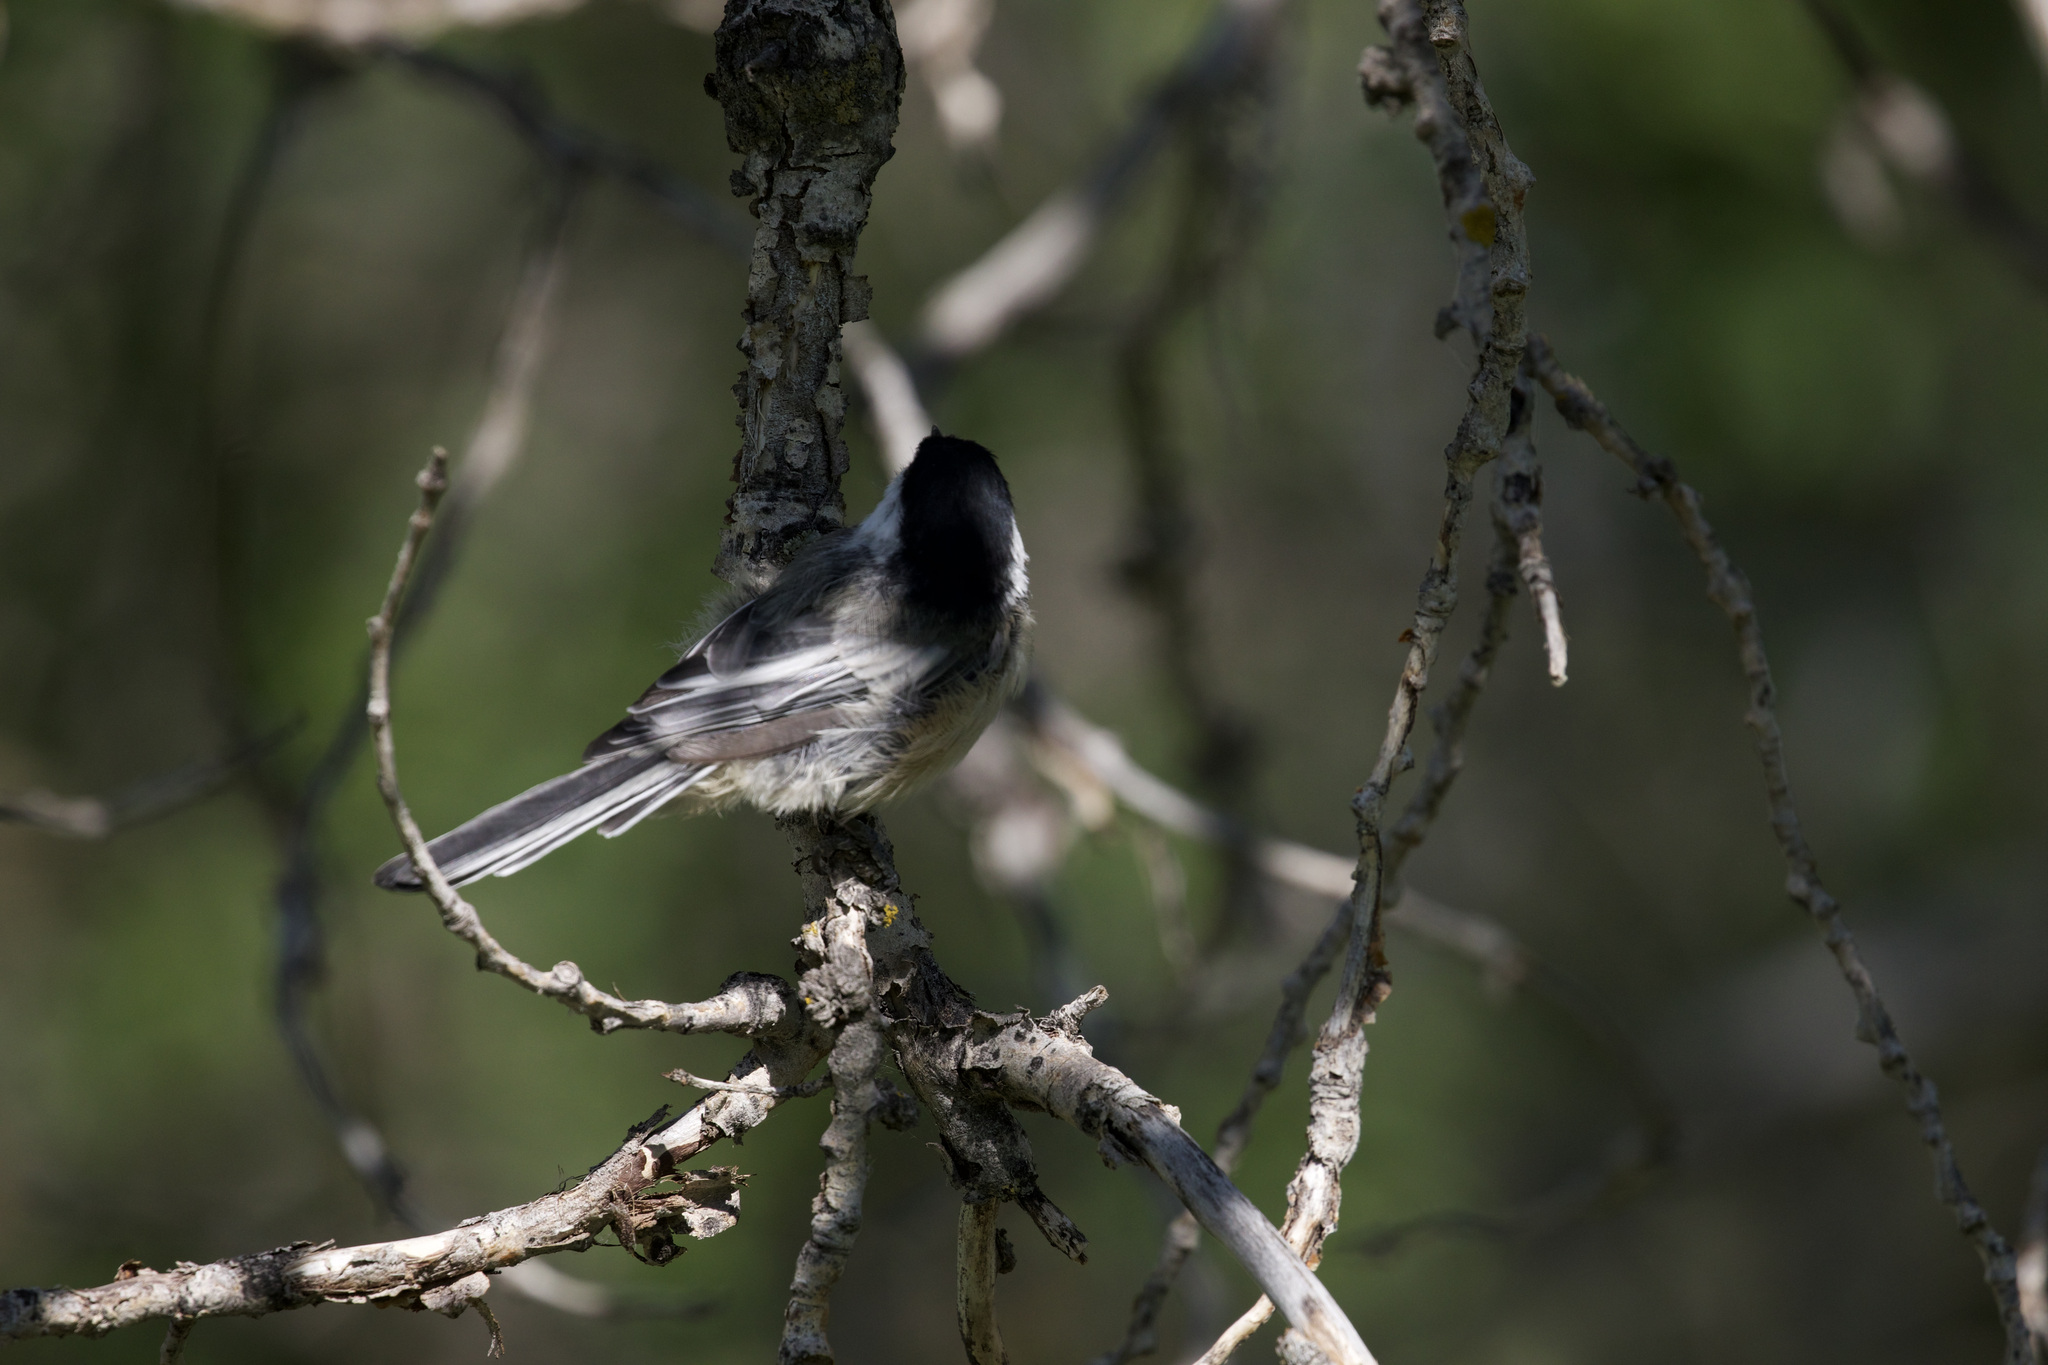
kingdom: Animalia
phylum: Chordata
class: Aves
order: Passeriformes
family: Paridae
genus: Poecile
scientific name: Poecile atricapillus
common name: Black-capped chickadee
